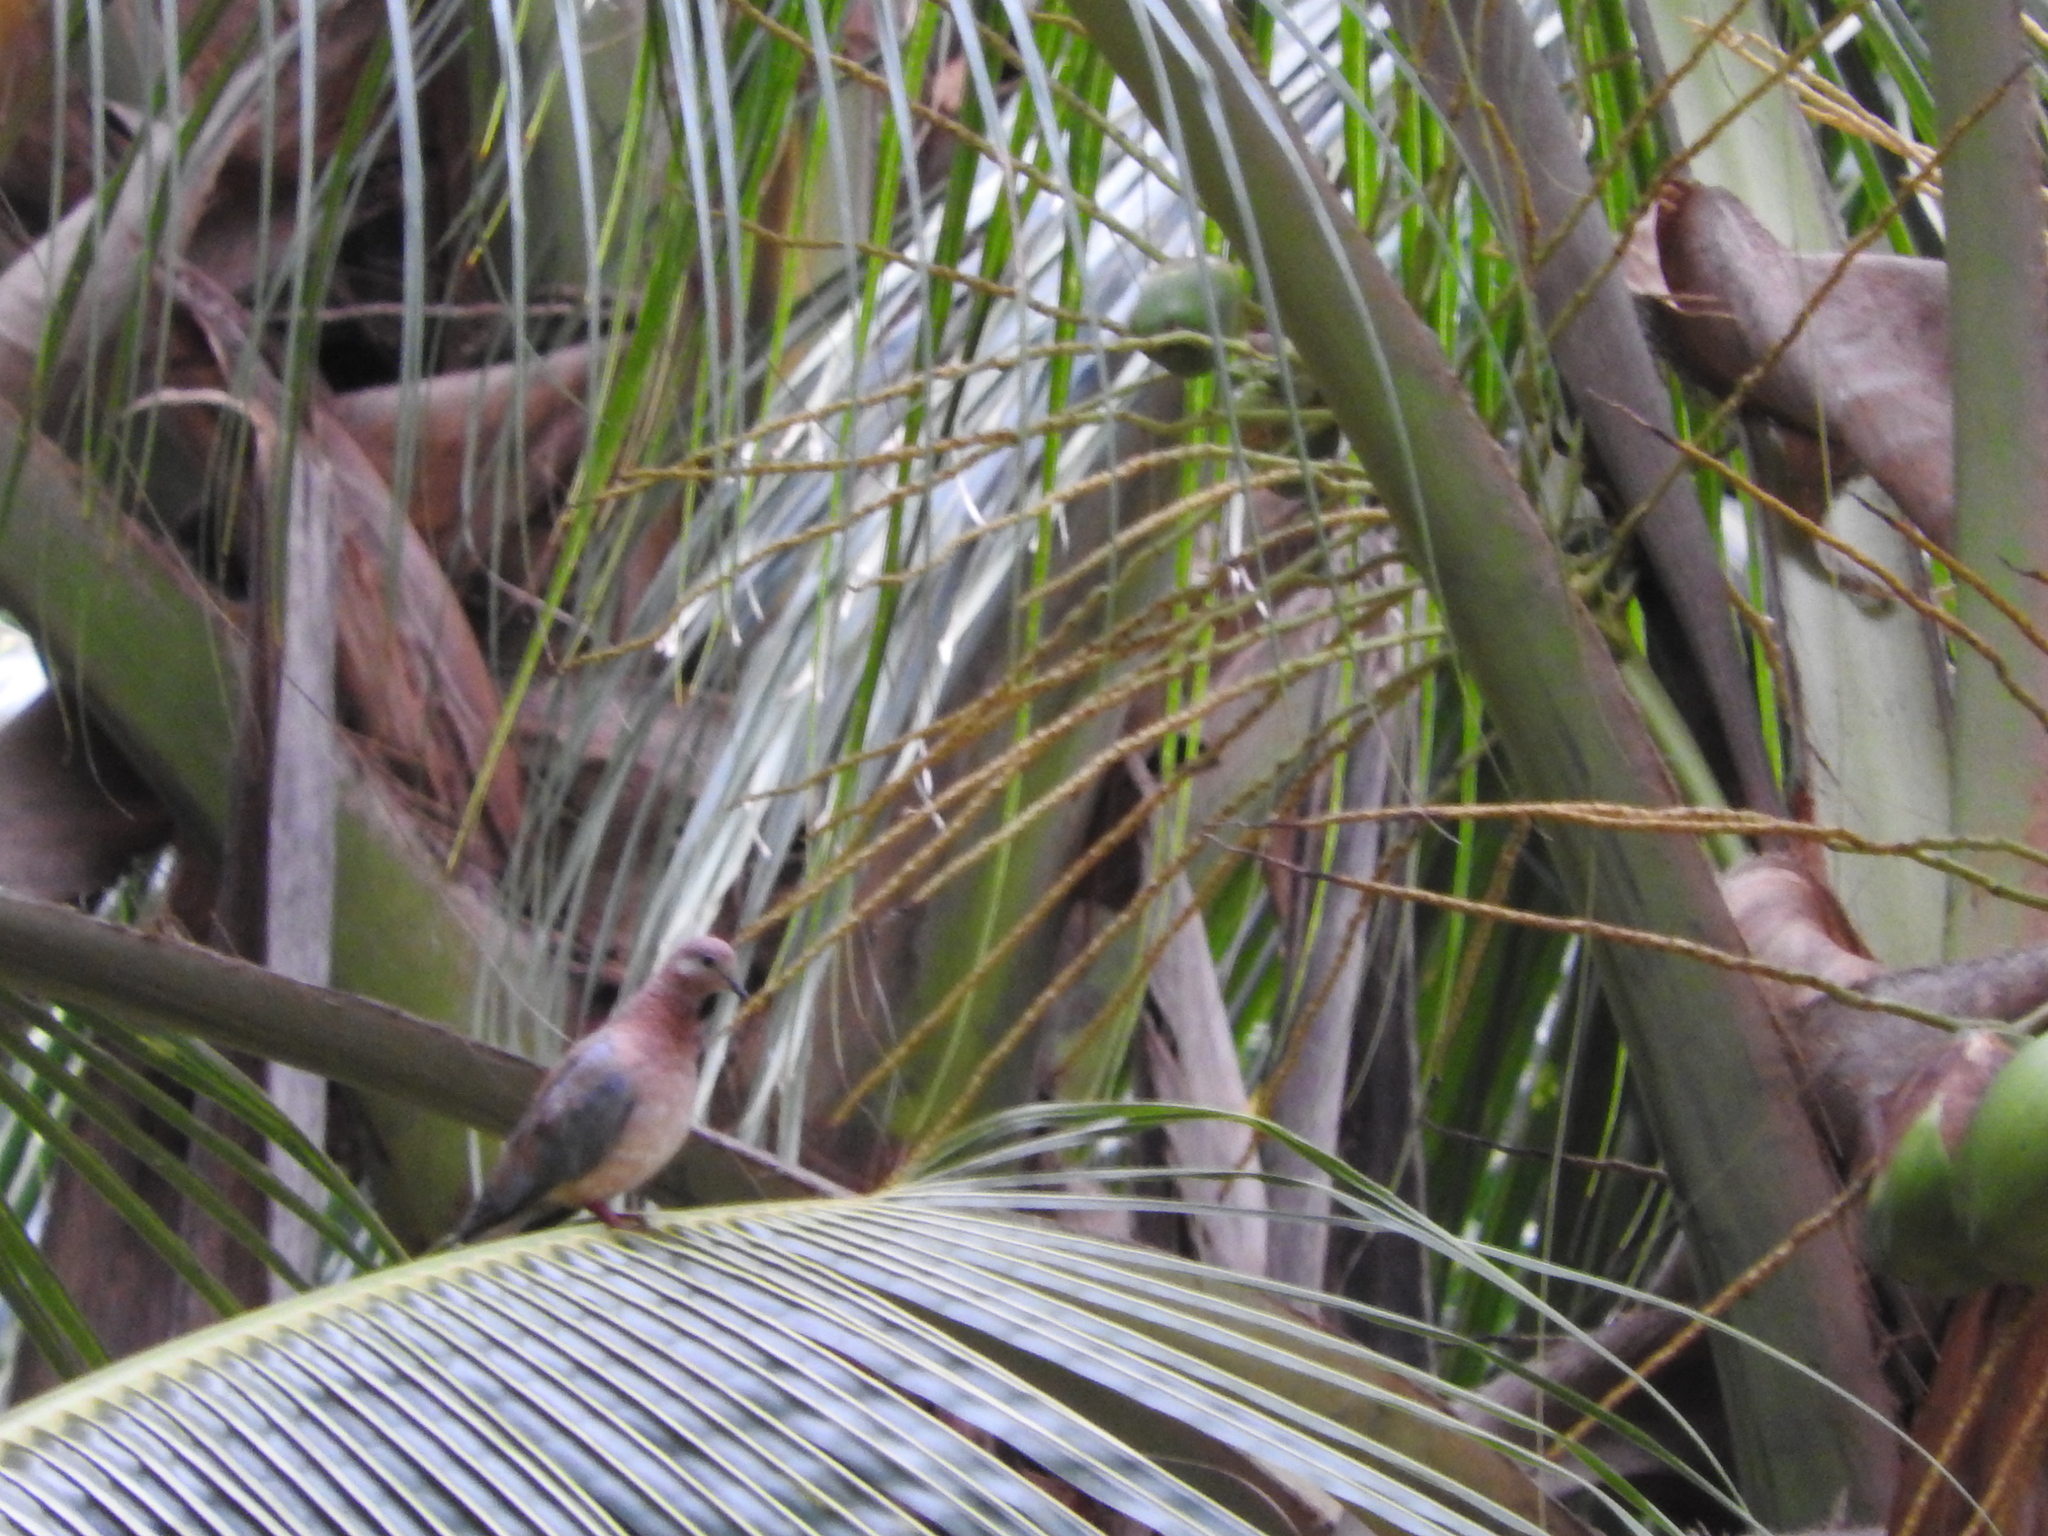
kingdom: Animalia
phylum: Chordata
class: Aves
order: Columbiformes
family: Columbidae
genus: Spilopelia
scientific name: Spilopelia senegalensis
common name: Laughing dove
